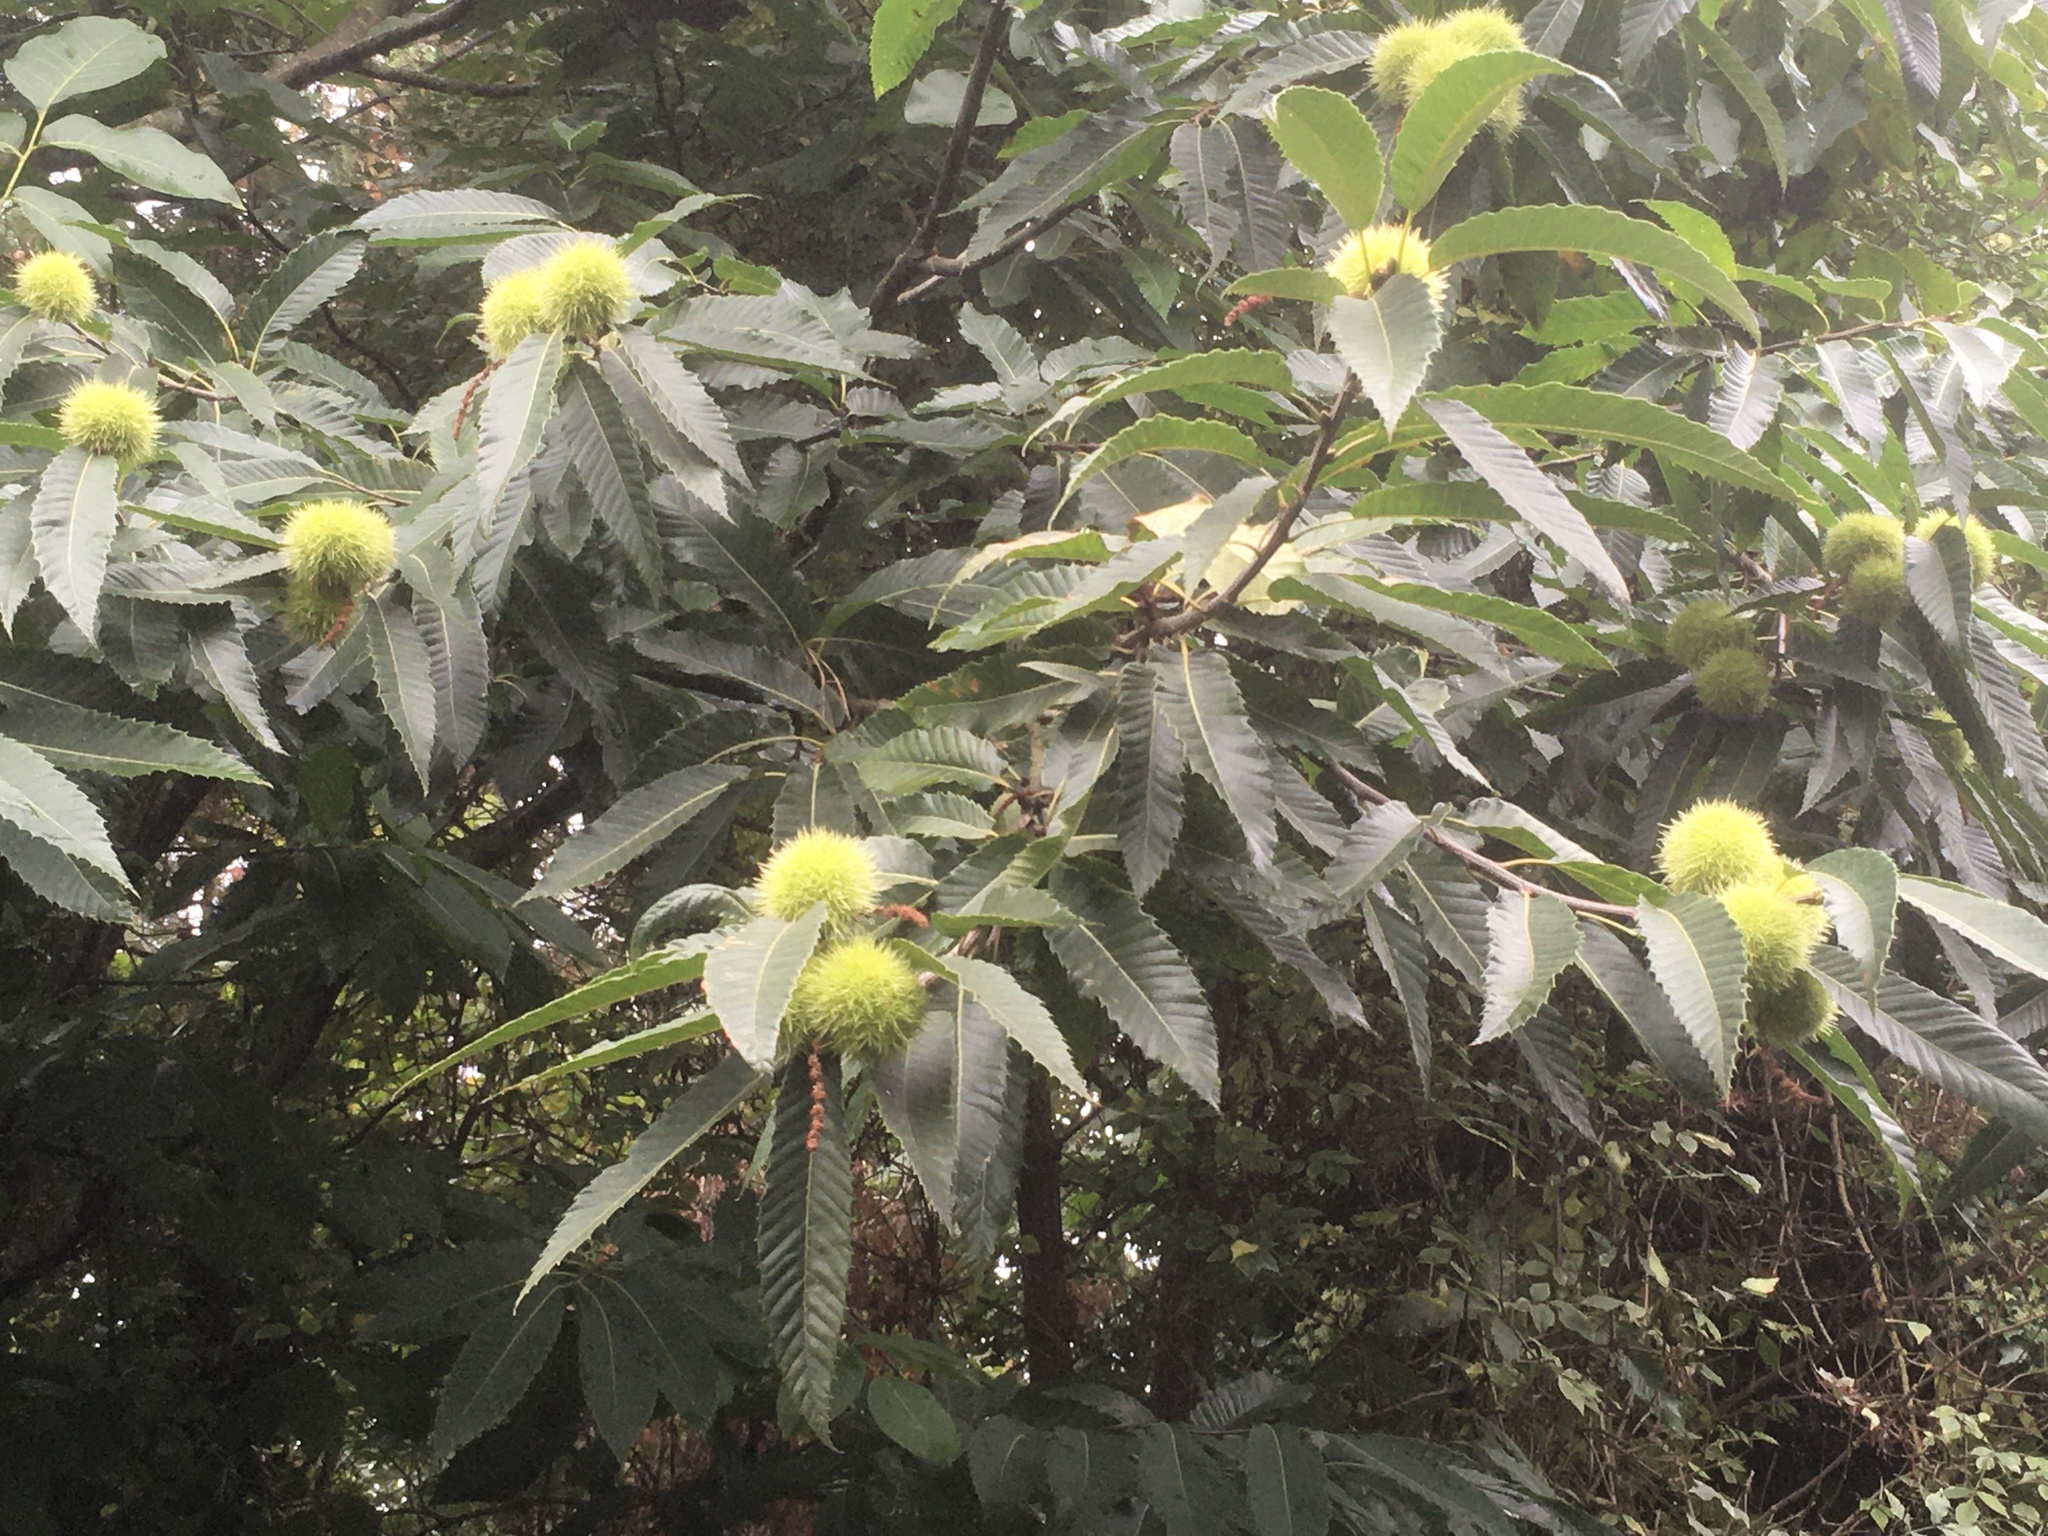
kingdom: Plantae
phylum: Tracheophyta
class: Magnoliopsida
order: Fagales
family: Fagaceae
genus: Castanea
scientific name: Castanea sativa
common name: Sweet chestnut
